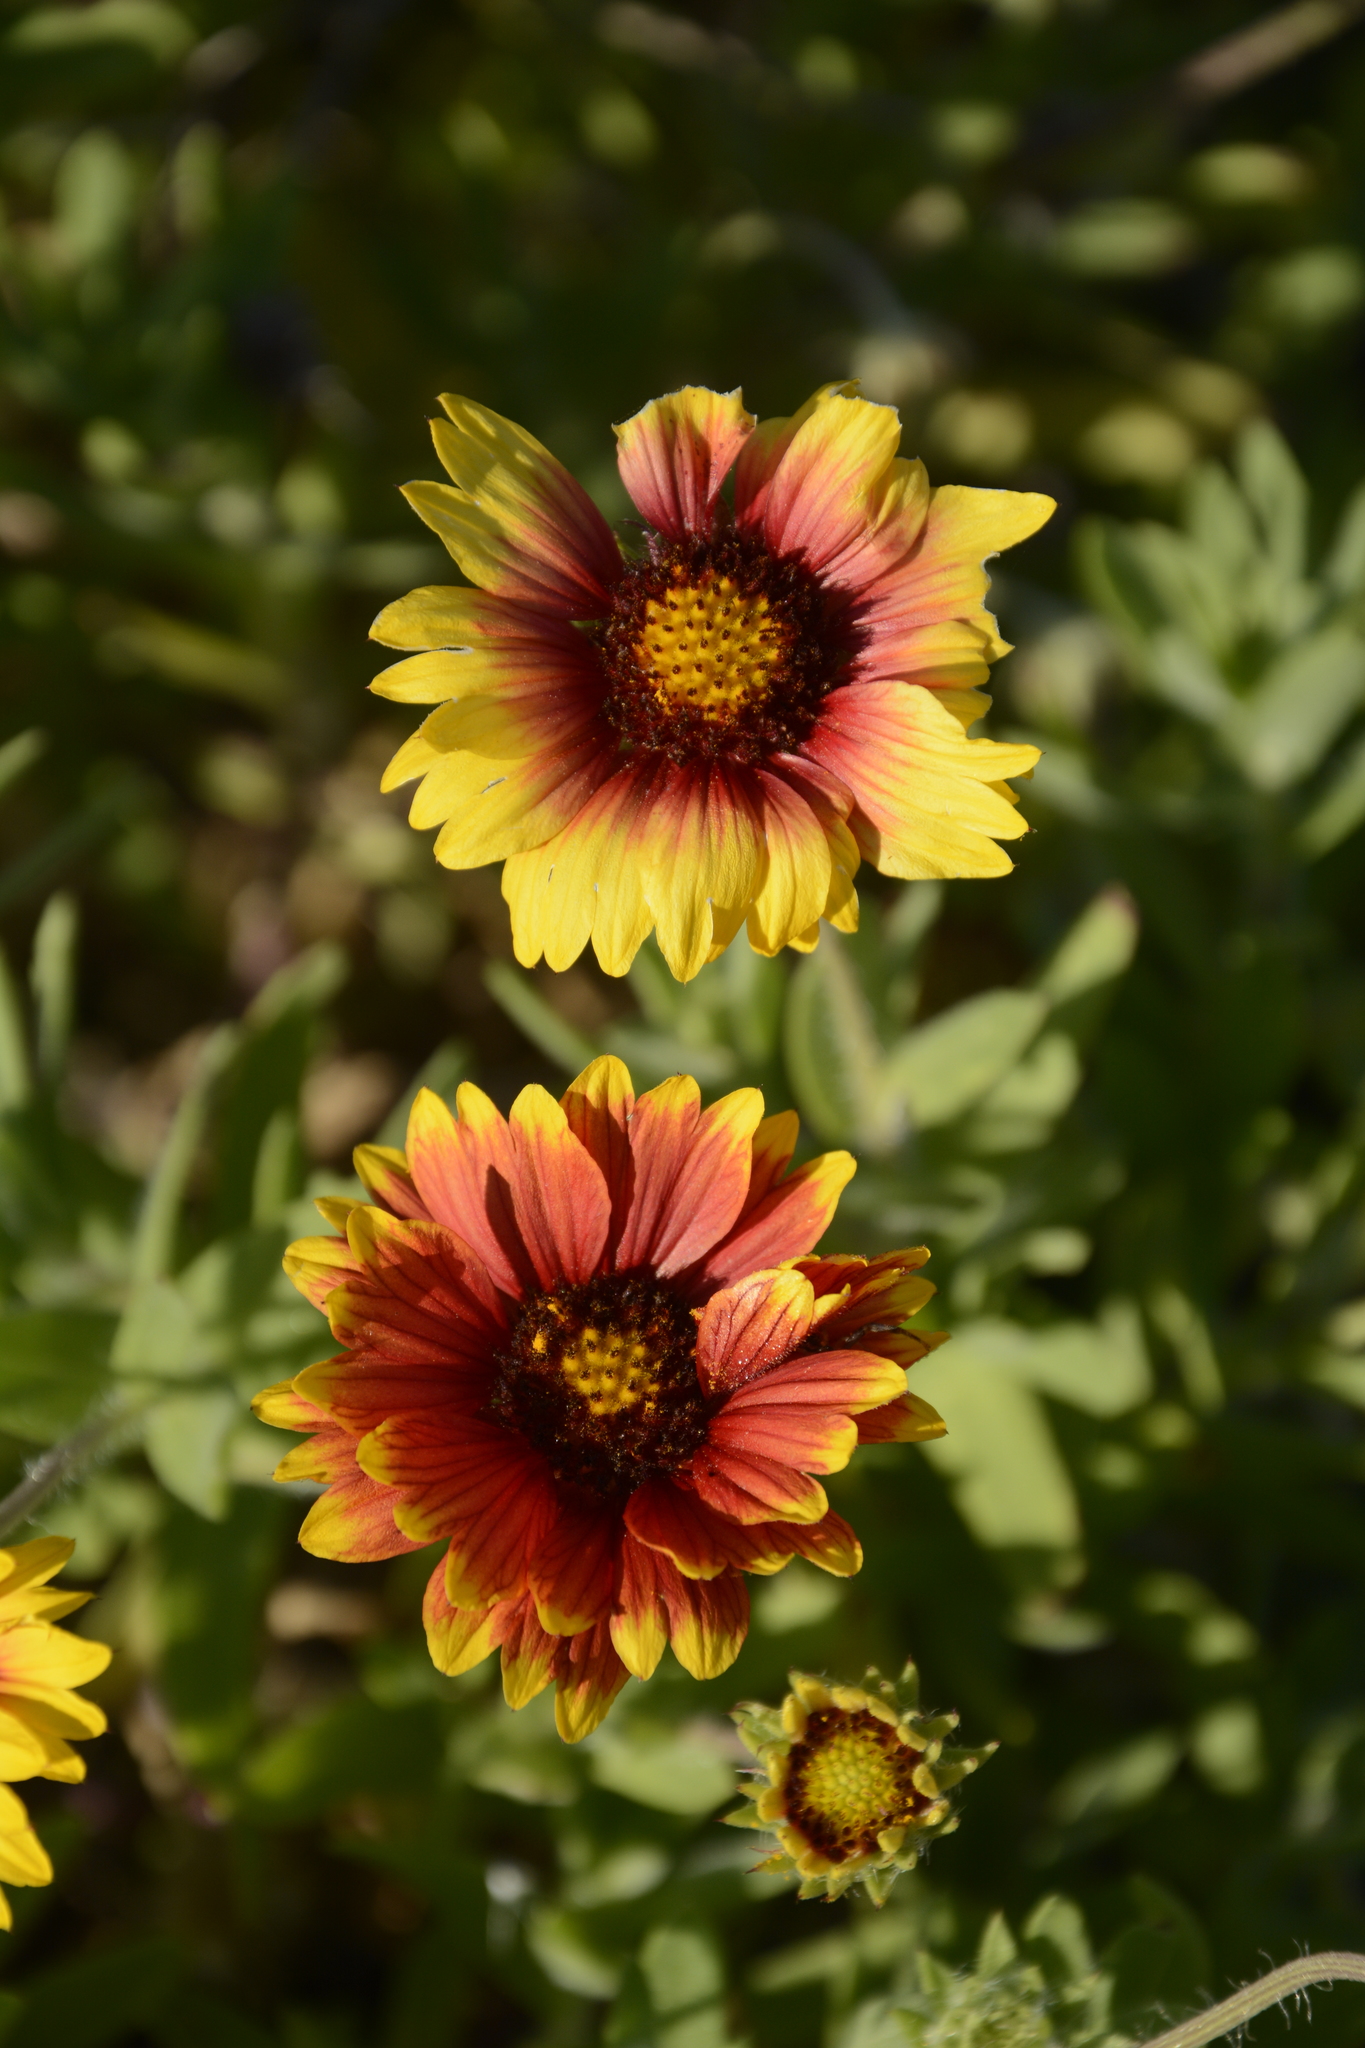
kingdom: Plantae
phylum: Tracheophyta
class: Magnoliopsida
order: Asterales
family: Asteraceae
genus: Gaillardia
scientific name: Gaillardia pulchella
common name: Firewheel
